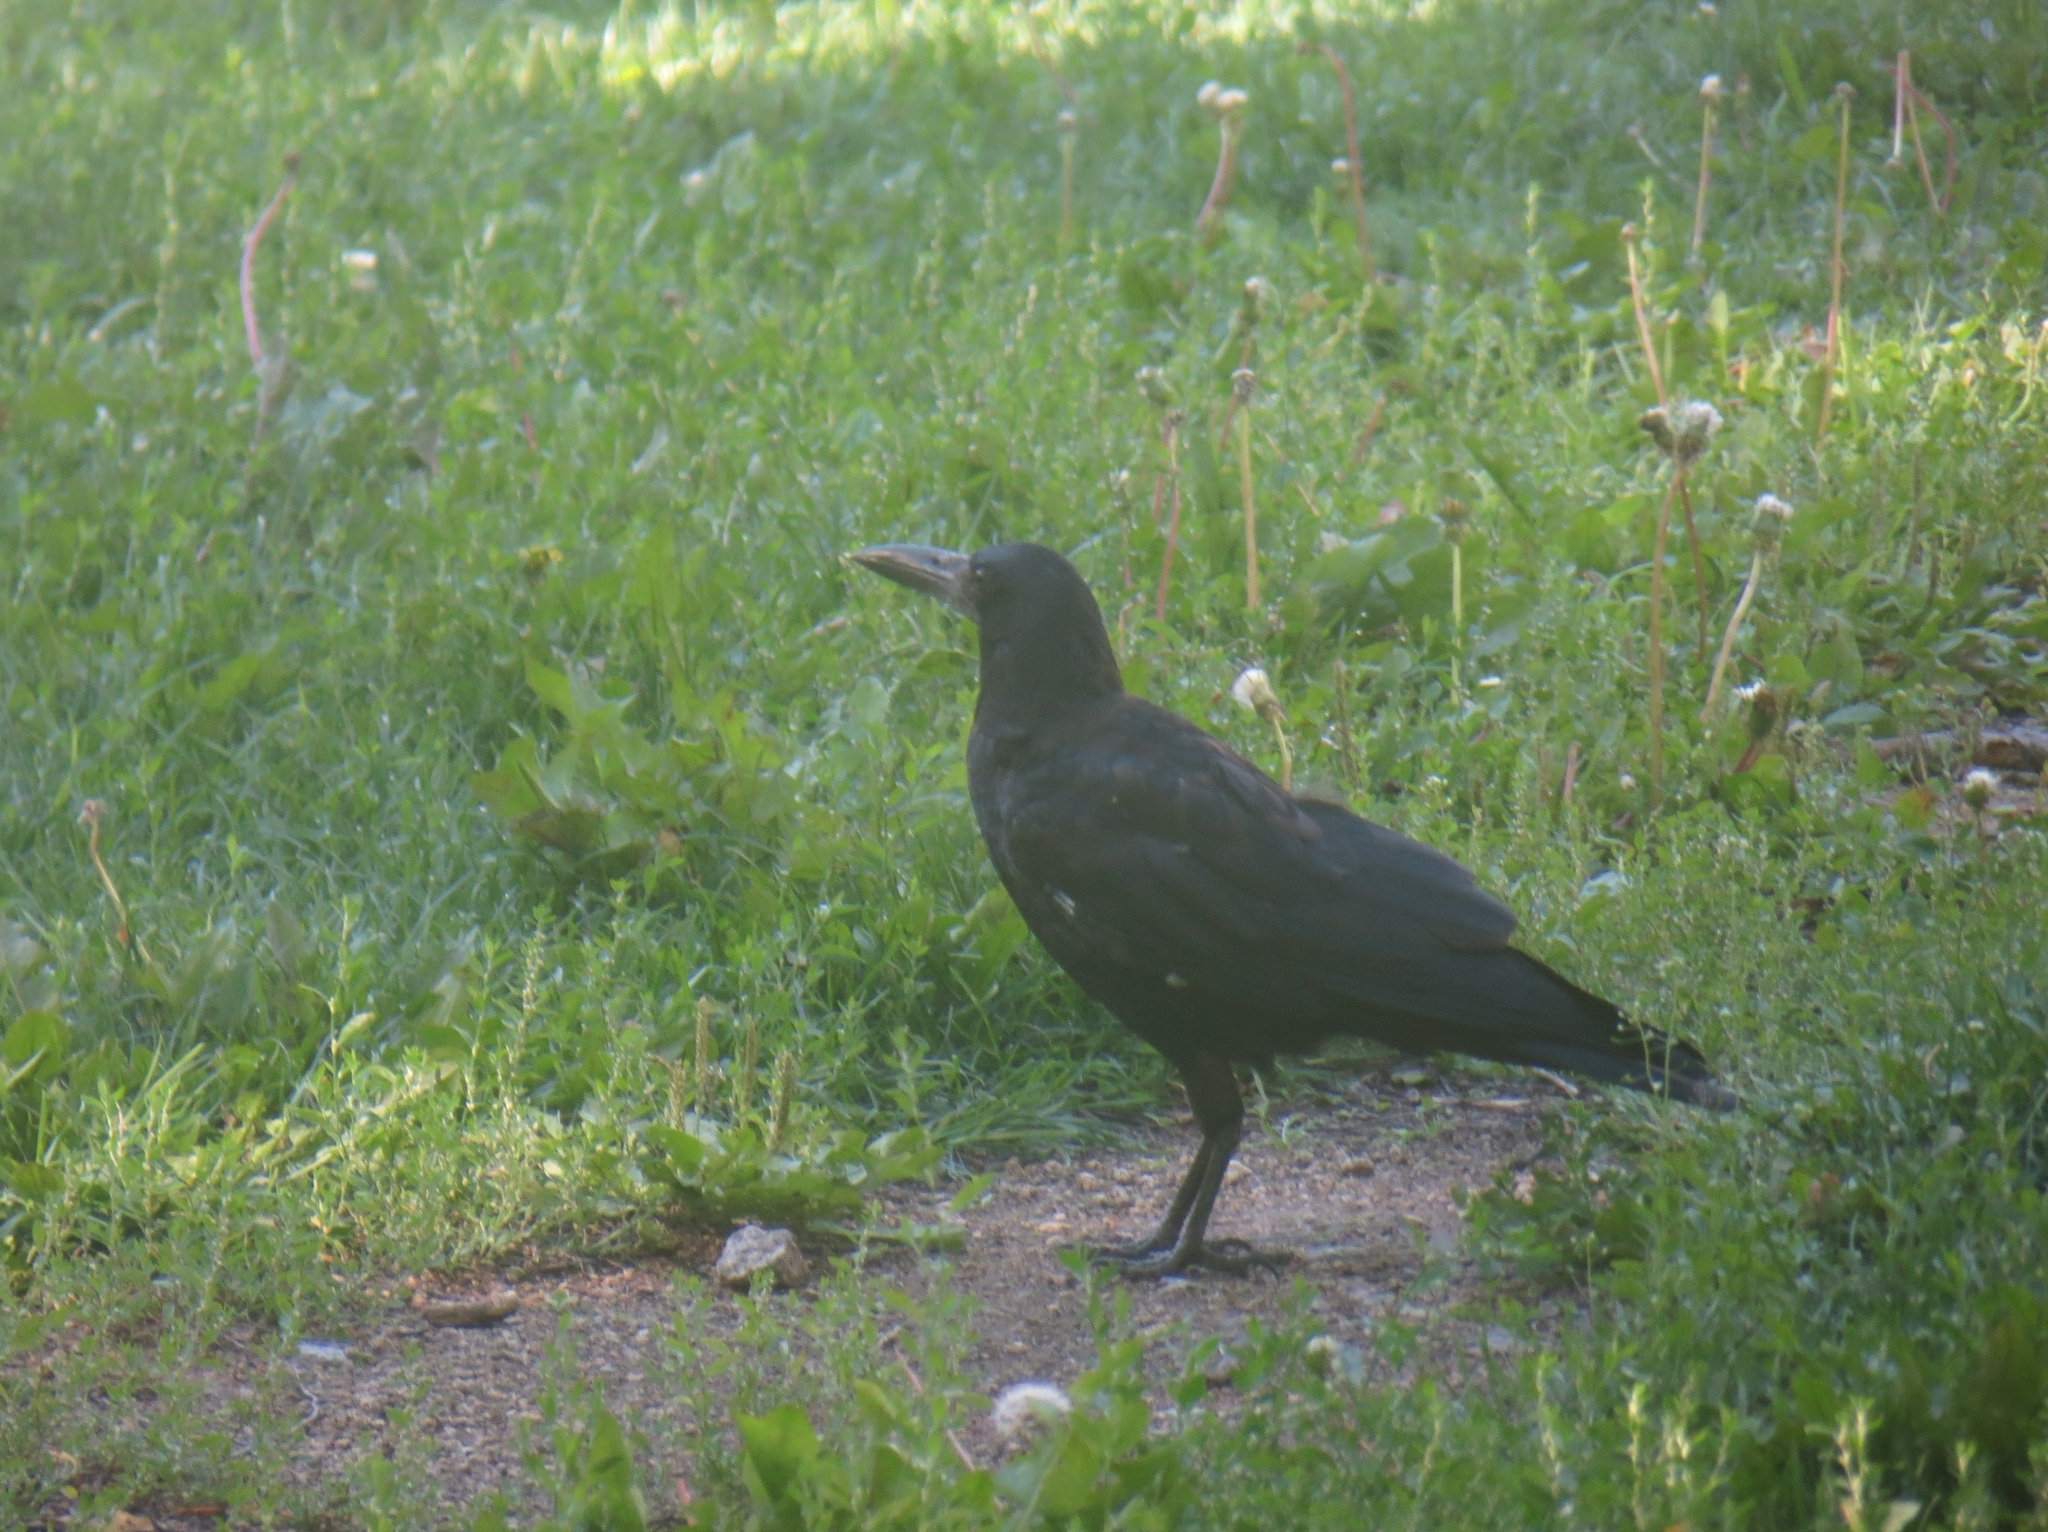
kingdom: Animalia
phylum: Chordata
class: Aves
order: Passeriformes
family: Corvidae
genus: Corvus
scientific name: Corvus frugilegus
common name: Rook
